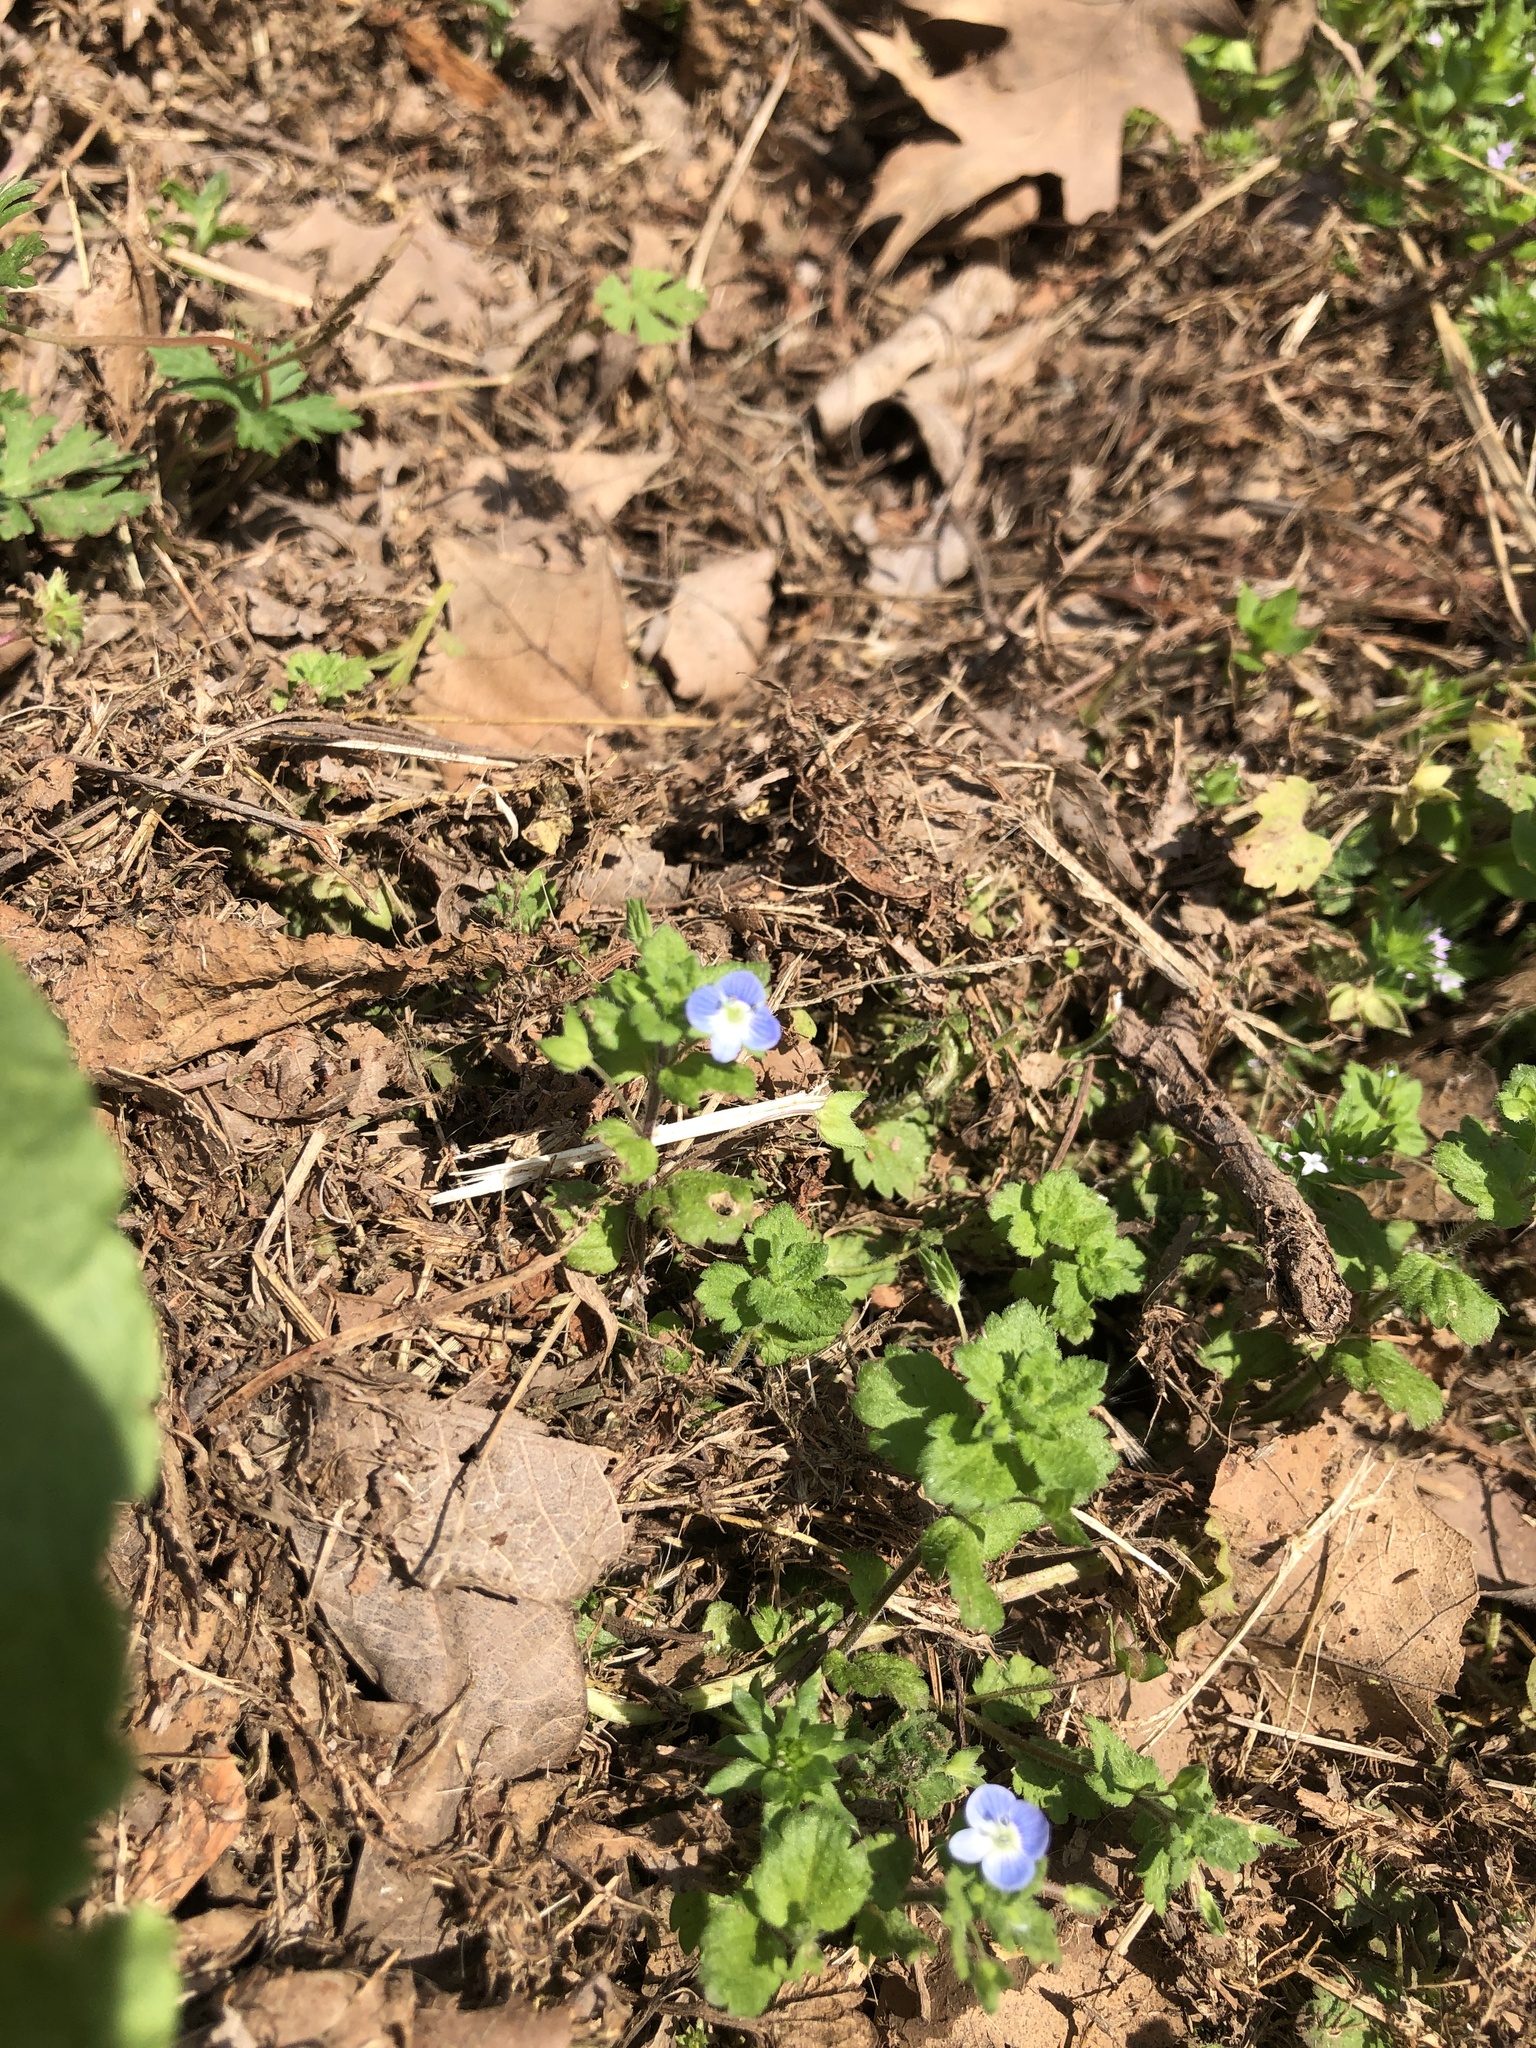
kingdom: Plantae
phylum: Tracheophyta
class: Magnoliopsida
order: Lamiales
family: Plantaginaceae
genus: Veronica
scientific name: Veronica persica
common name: Common field-speedwell
